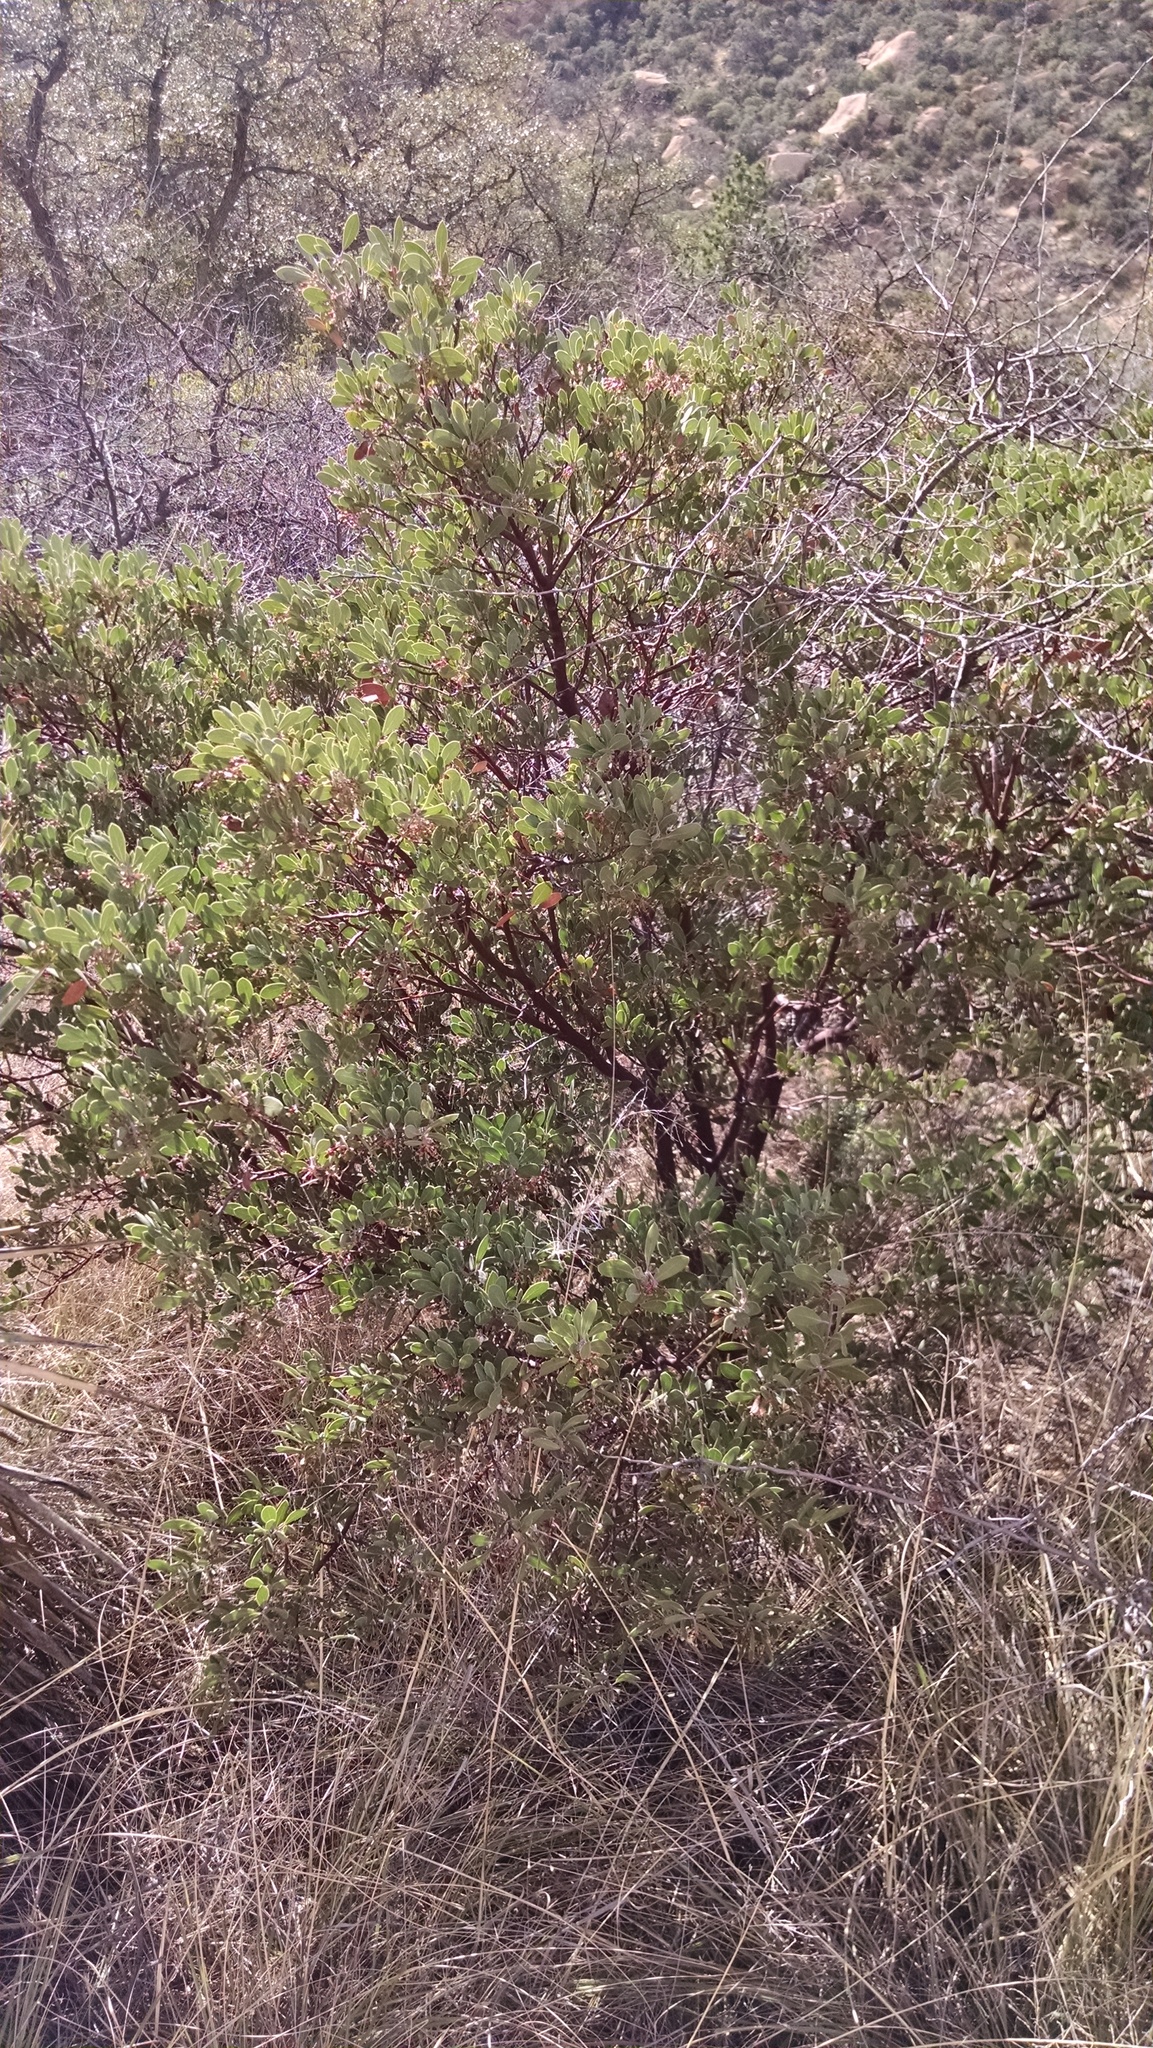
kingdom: Plantae
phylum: Tracheophyta
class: Magnoliopsida
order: Ericales
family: Ericaceae
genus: Arctostaphylos
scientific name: Arctostaphylos pungens
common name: Mexican manzanita
